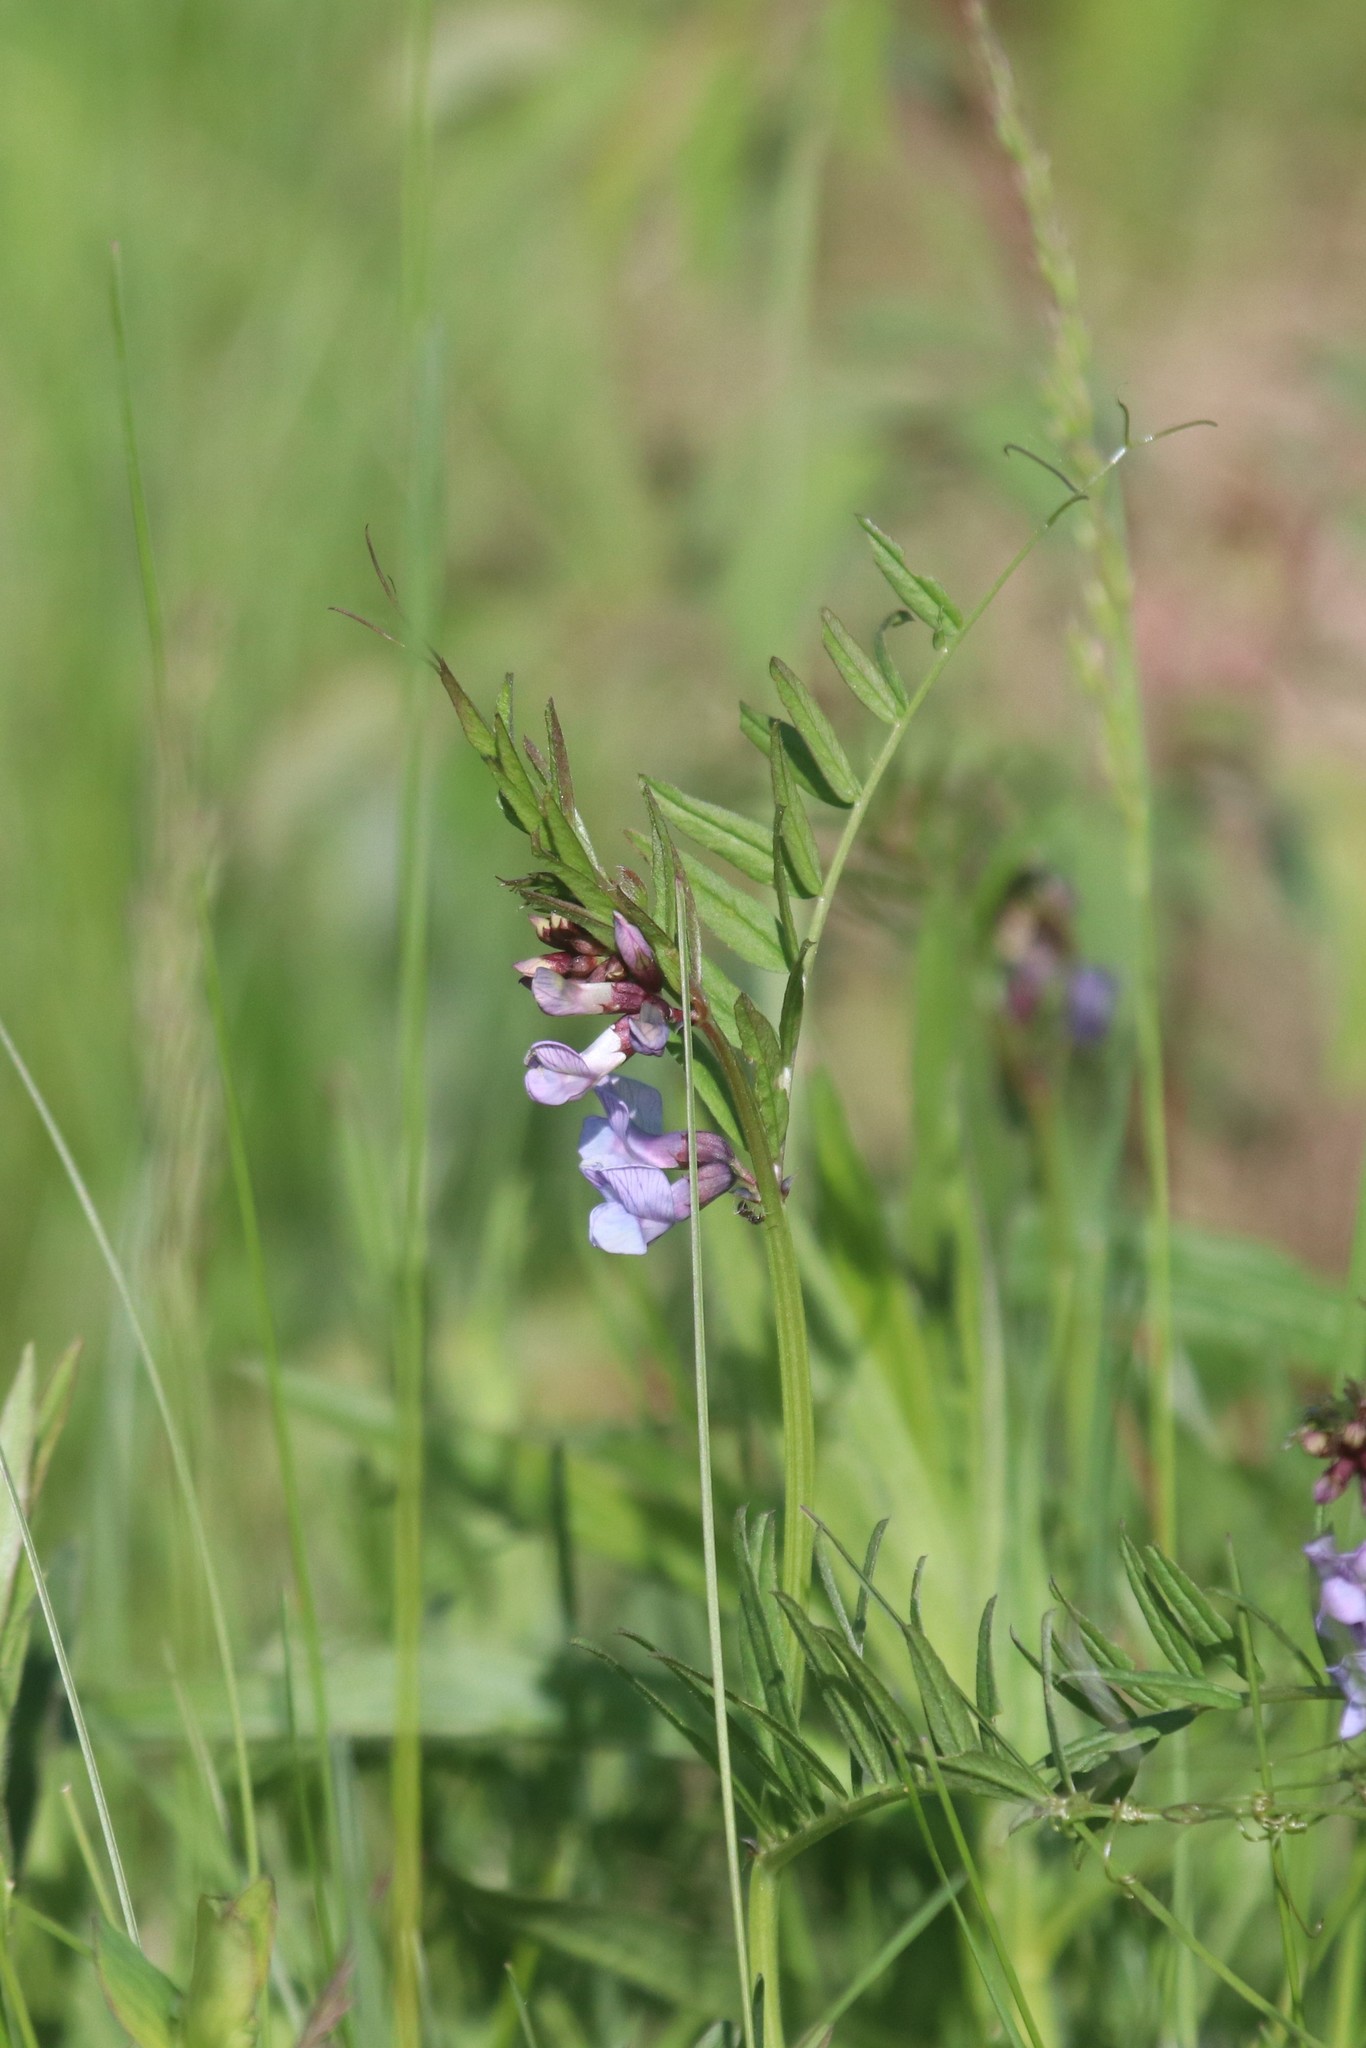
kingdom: Plantae
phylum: Tracheophyta
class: Magnoliopsida
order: Fabales
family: Fabaceae
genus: Vicia
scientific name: Vicia sepium
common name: Bush vetch
